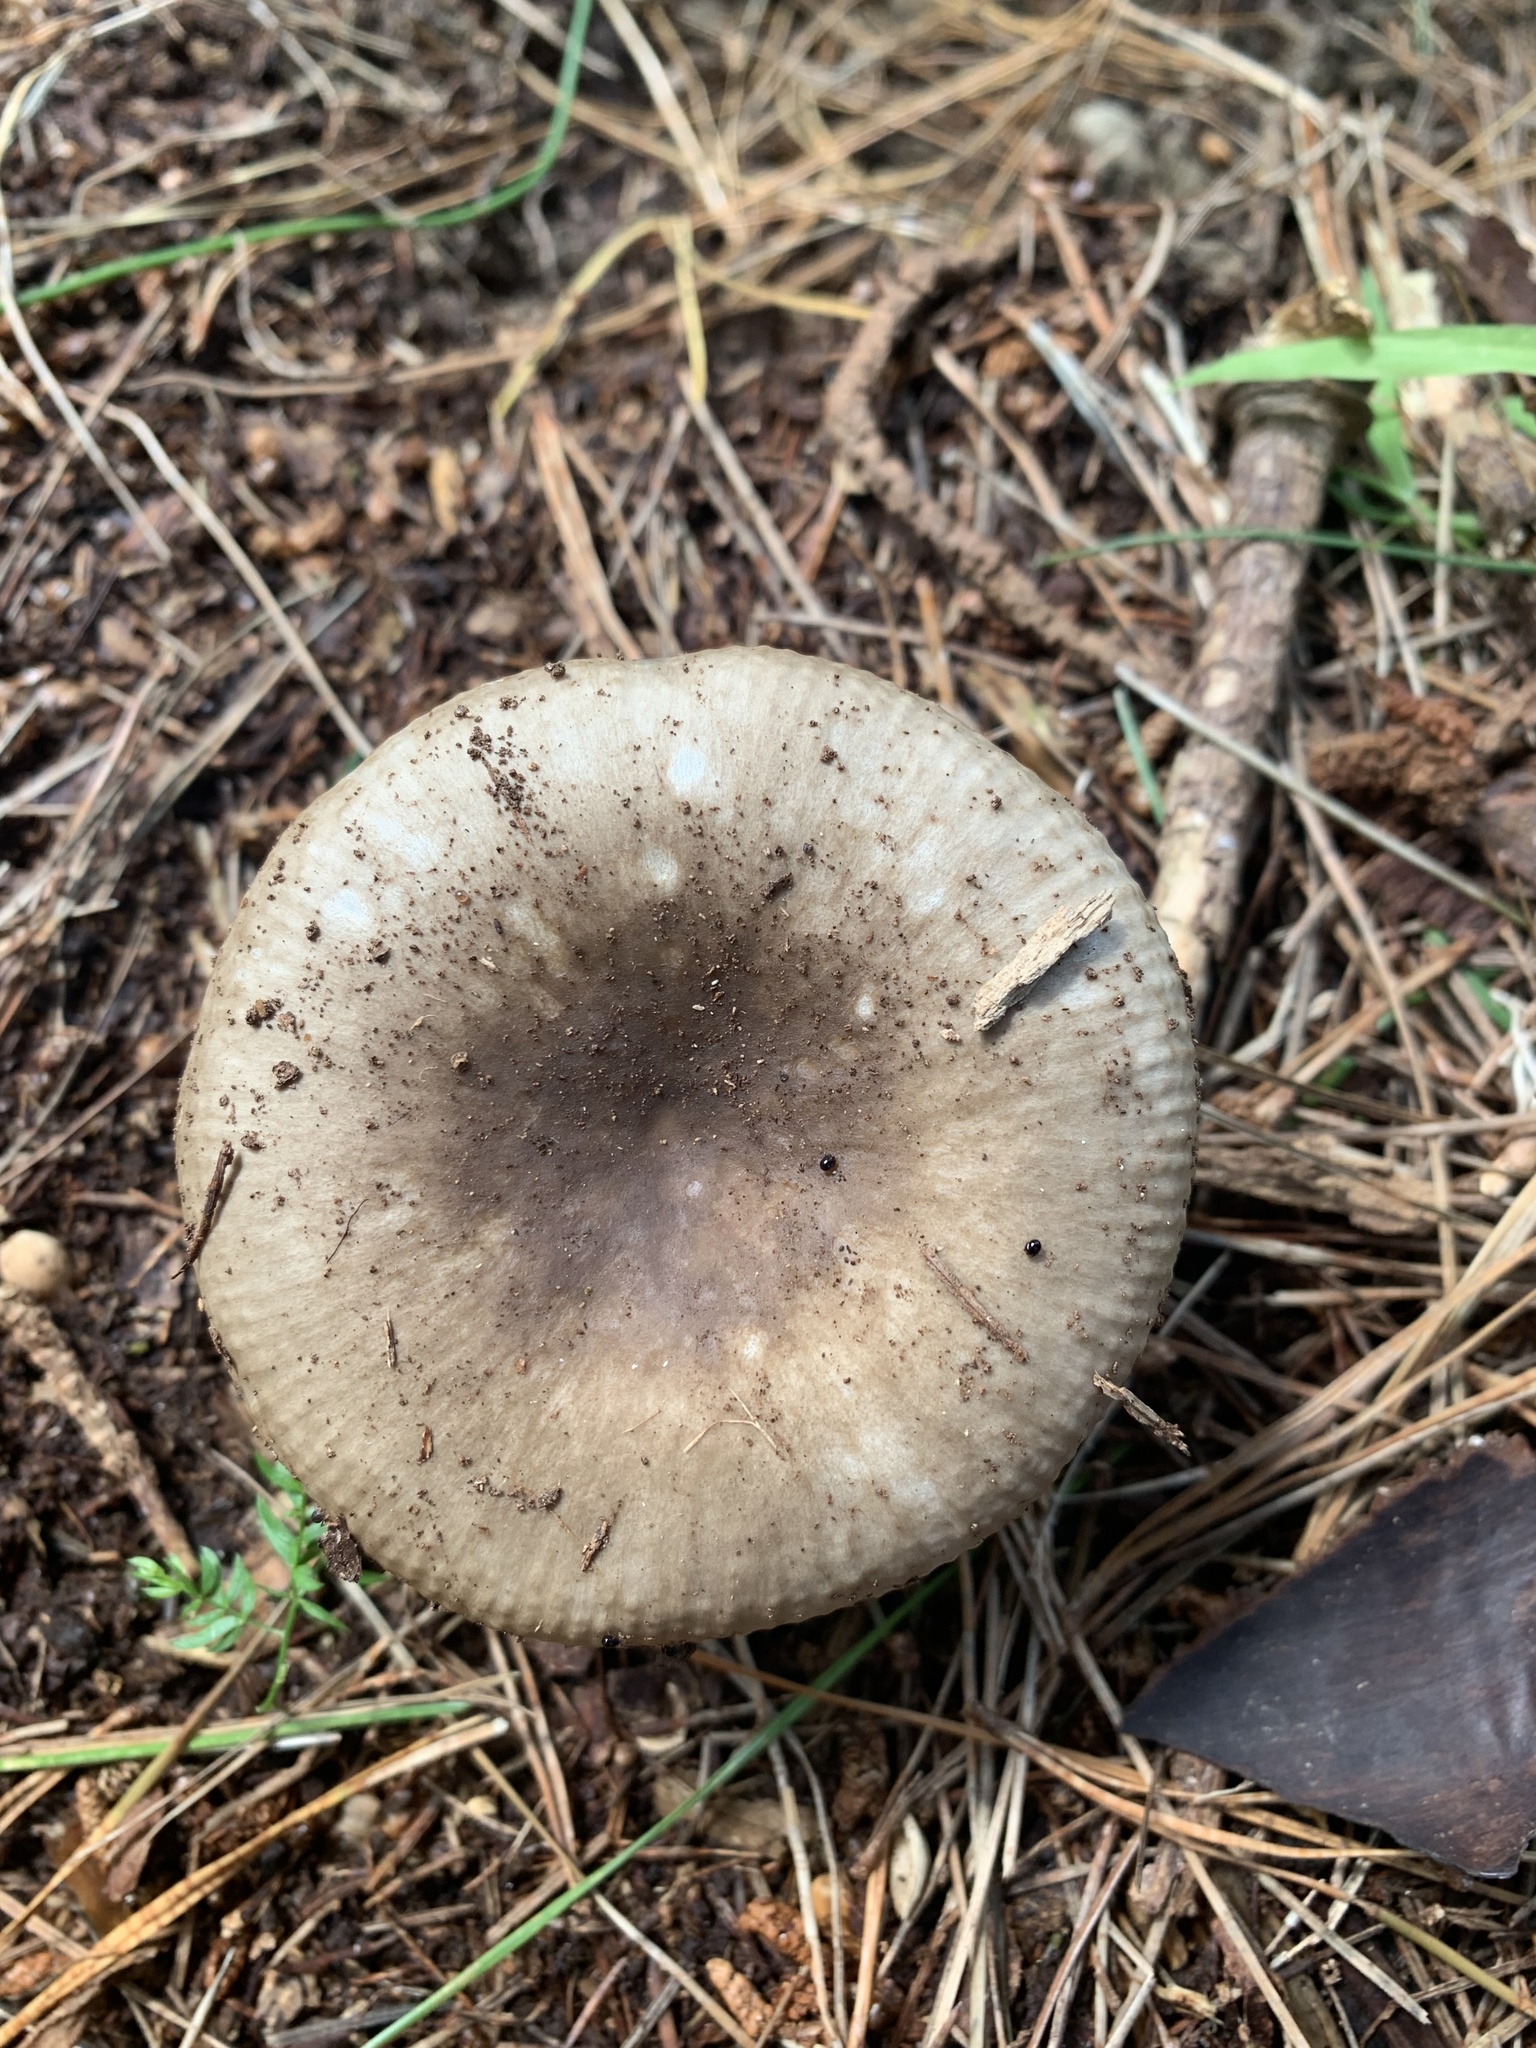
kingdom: Fungi
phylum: Basidiomycota
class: Agaricomycetes
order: Russulales
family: Russulaceae
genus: Russula
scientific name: Russula amoenolens
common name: Camembert brittlegill
